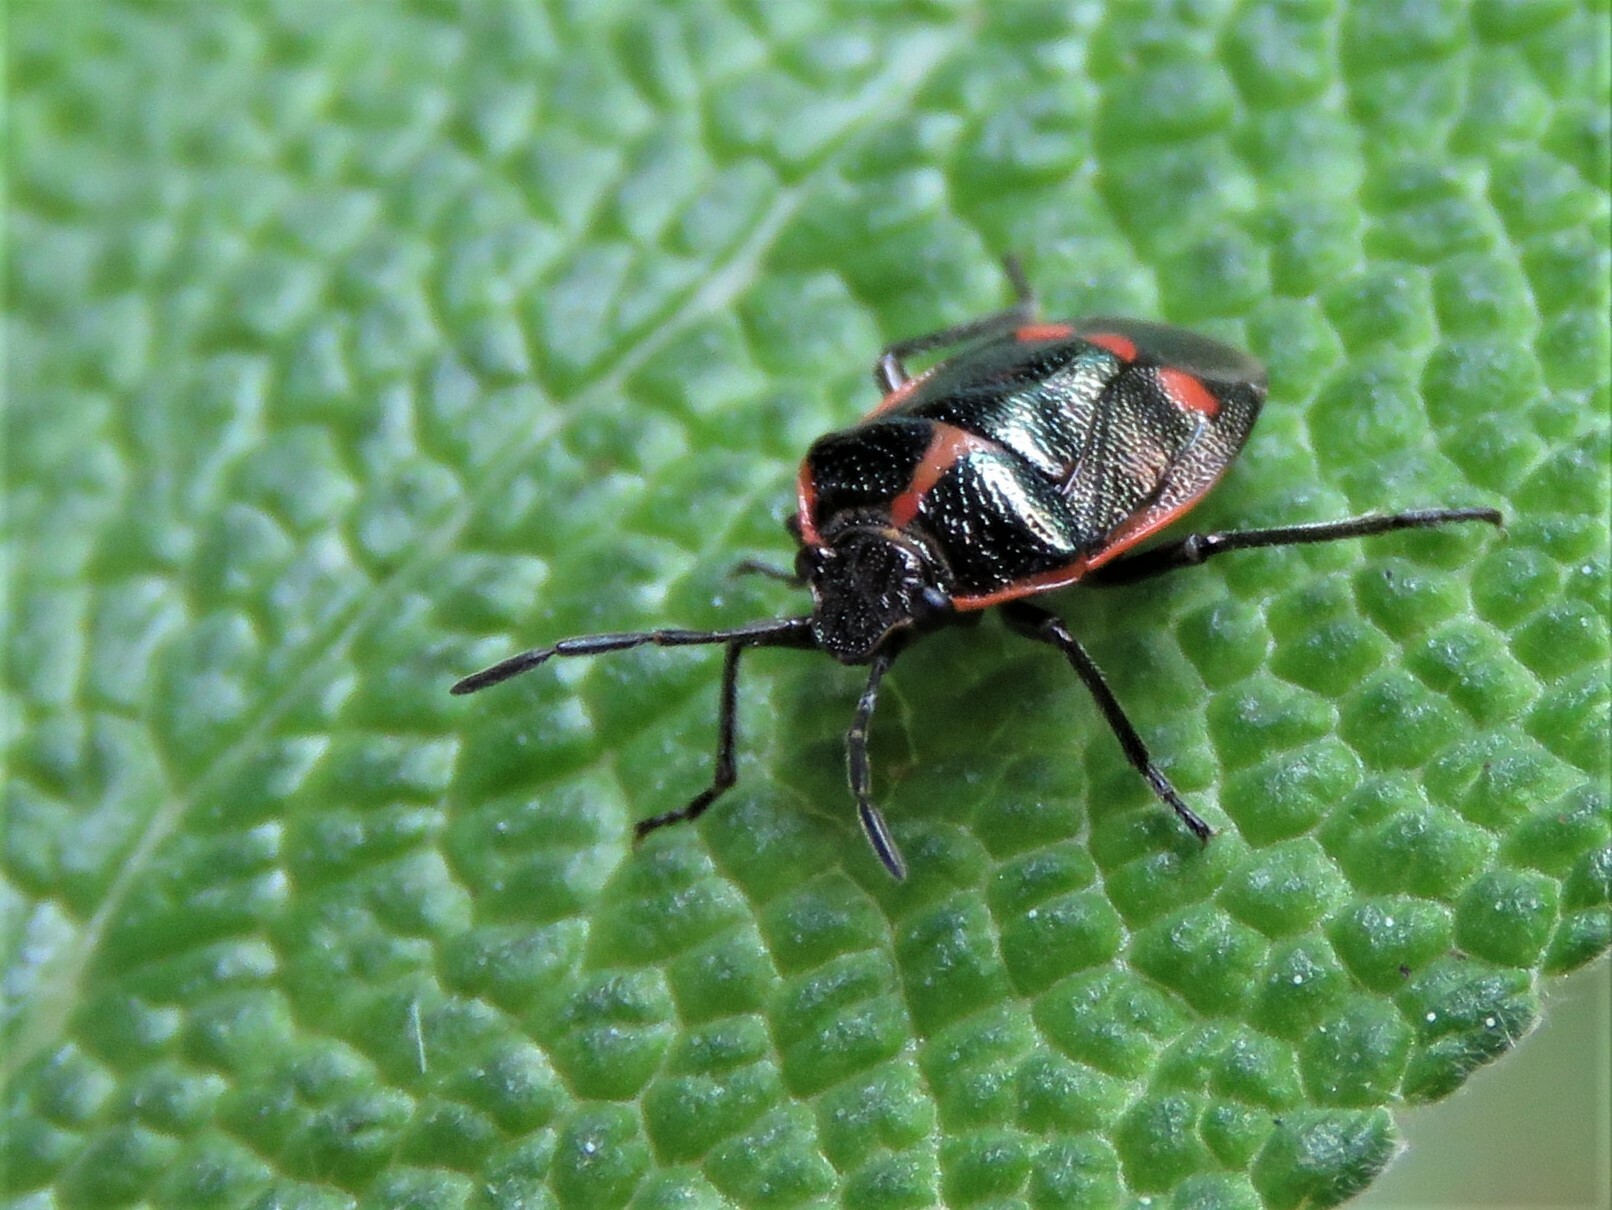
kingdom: Animalia
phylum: Arthropoda
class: Insecta
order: Hemiptera
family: Pentatomidae
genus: Eurydema
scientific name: Eurydema oleracea
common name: Cabbage bug
